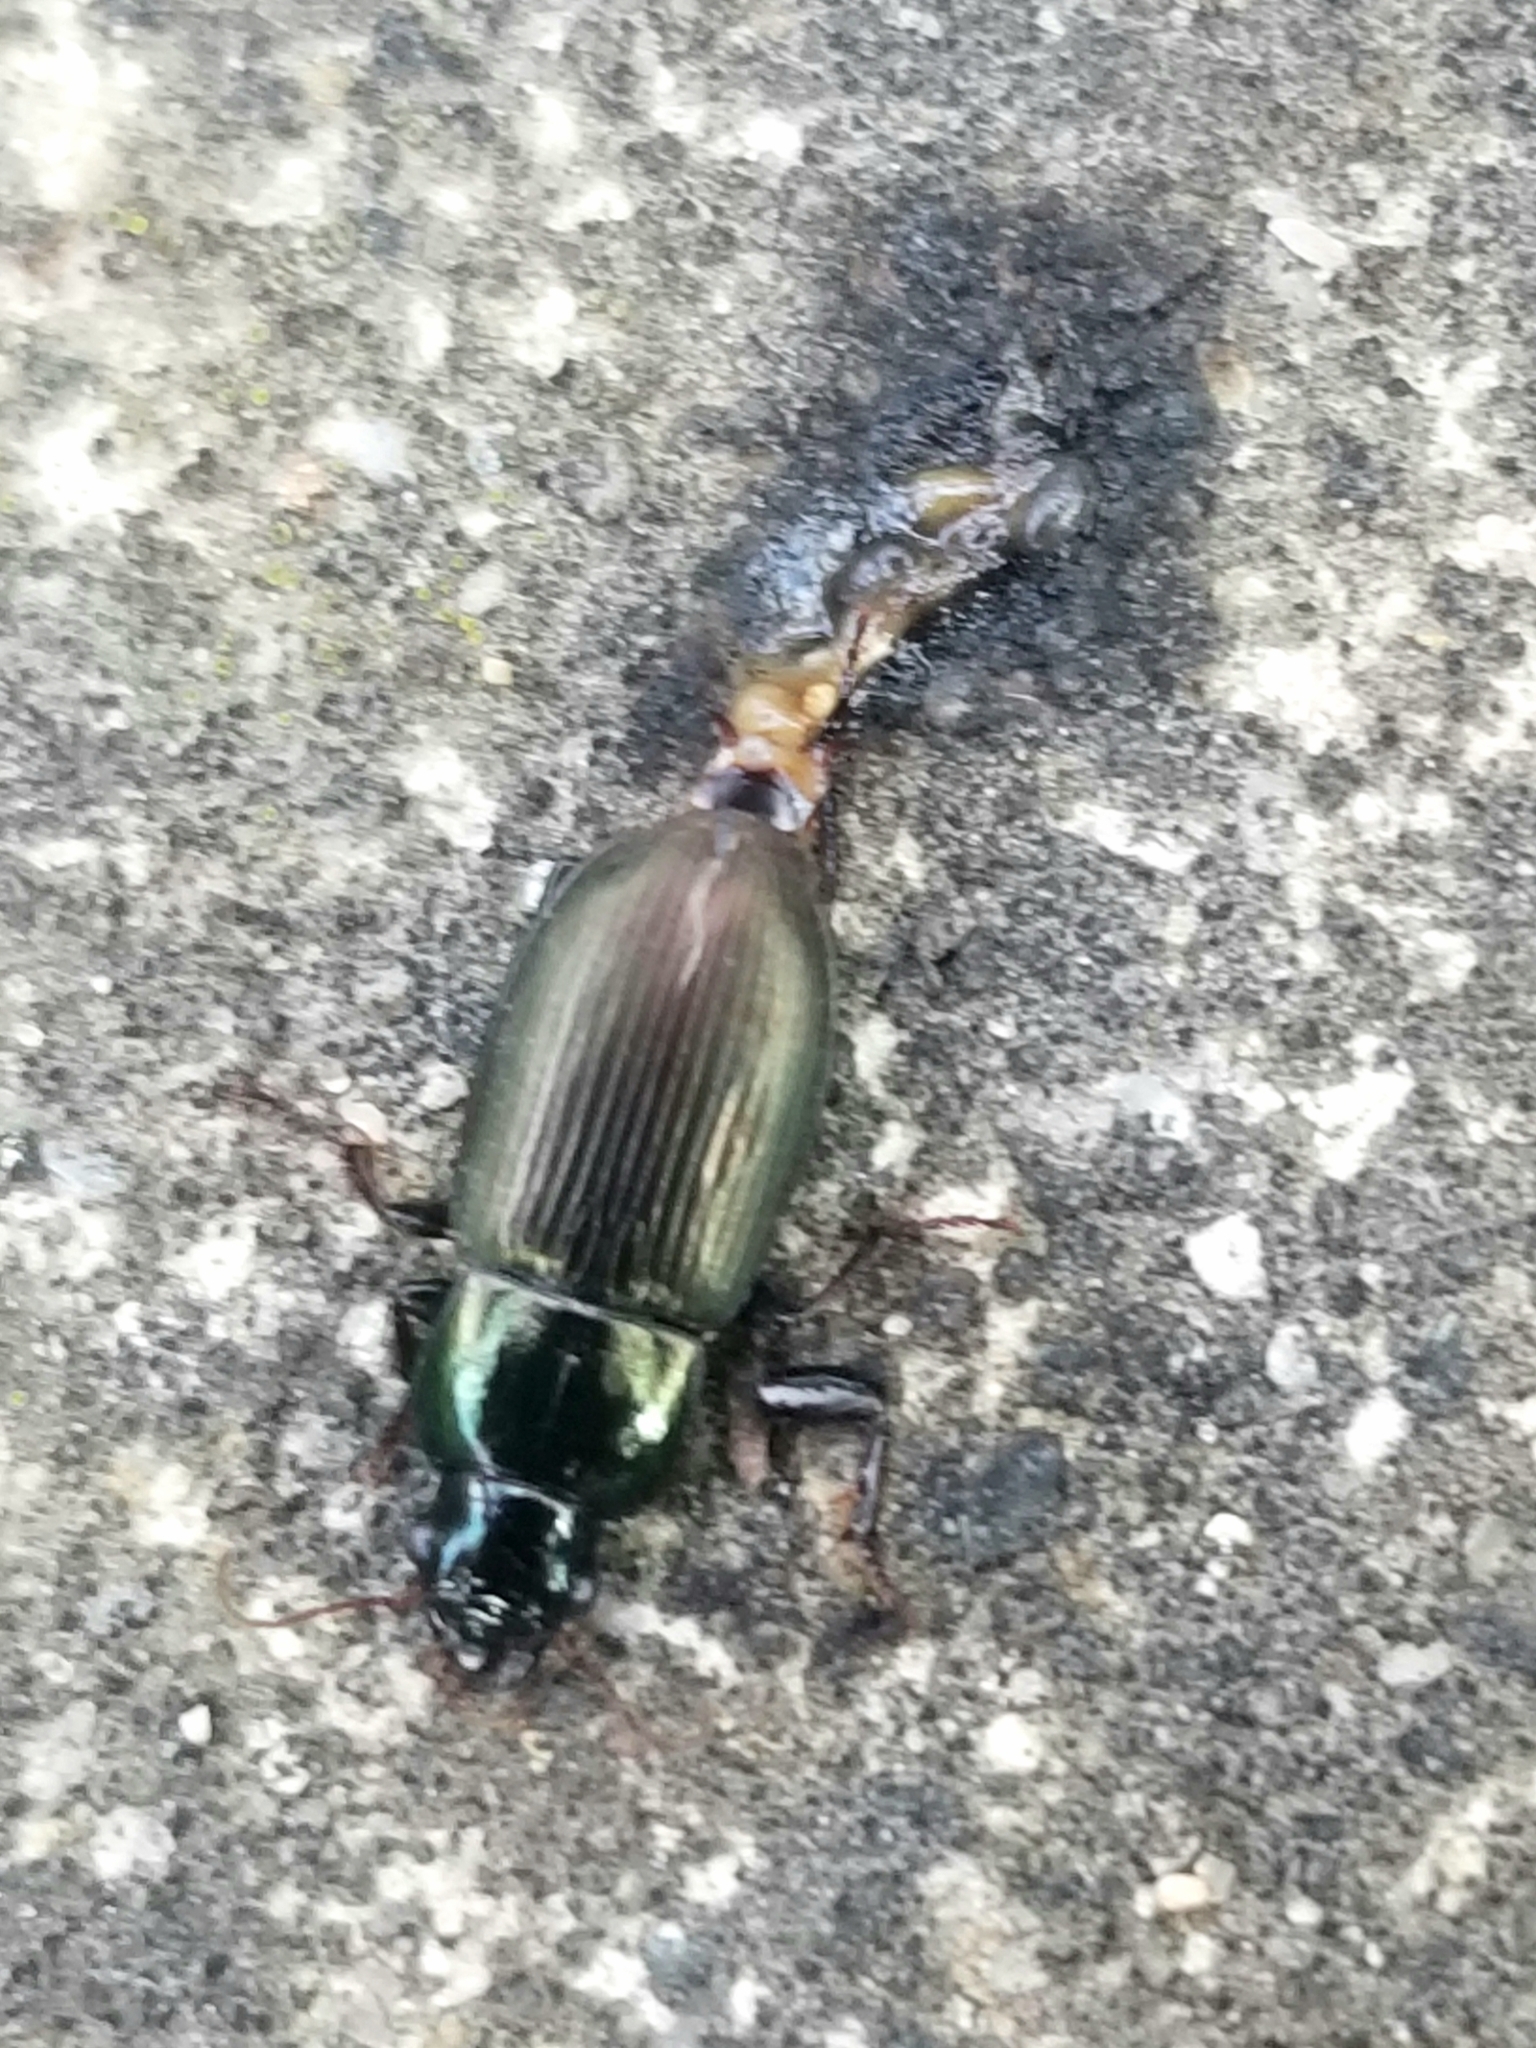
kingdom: Animalia
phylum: Arthropoda
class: Insecta
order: Coleoptera
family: Carabidae
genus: Harpalus
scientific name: Harpalus affinis
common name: Polychrome harp ground beetle
